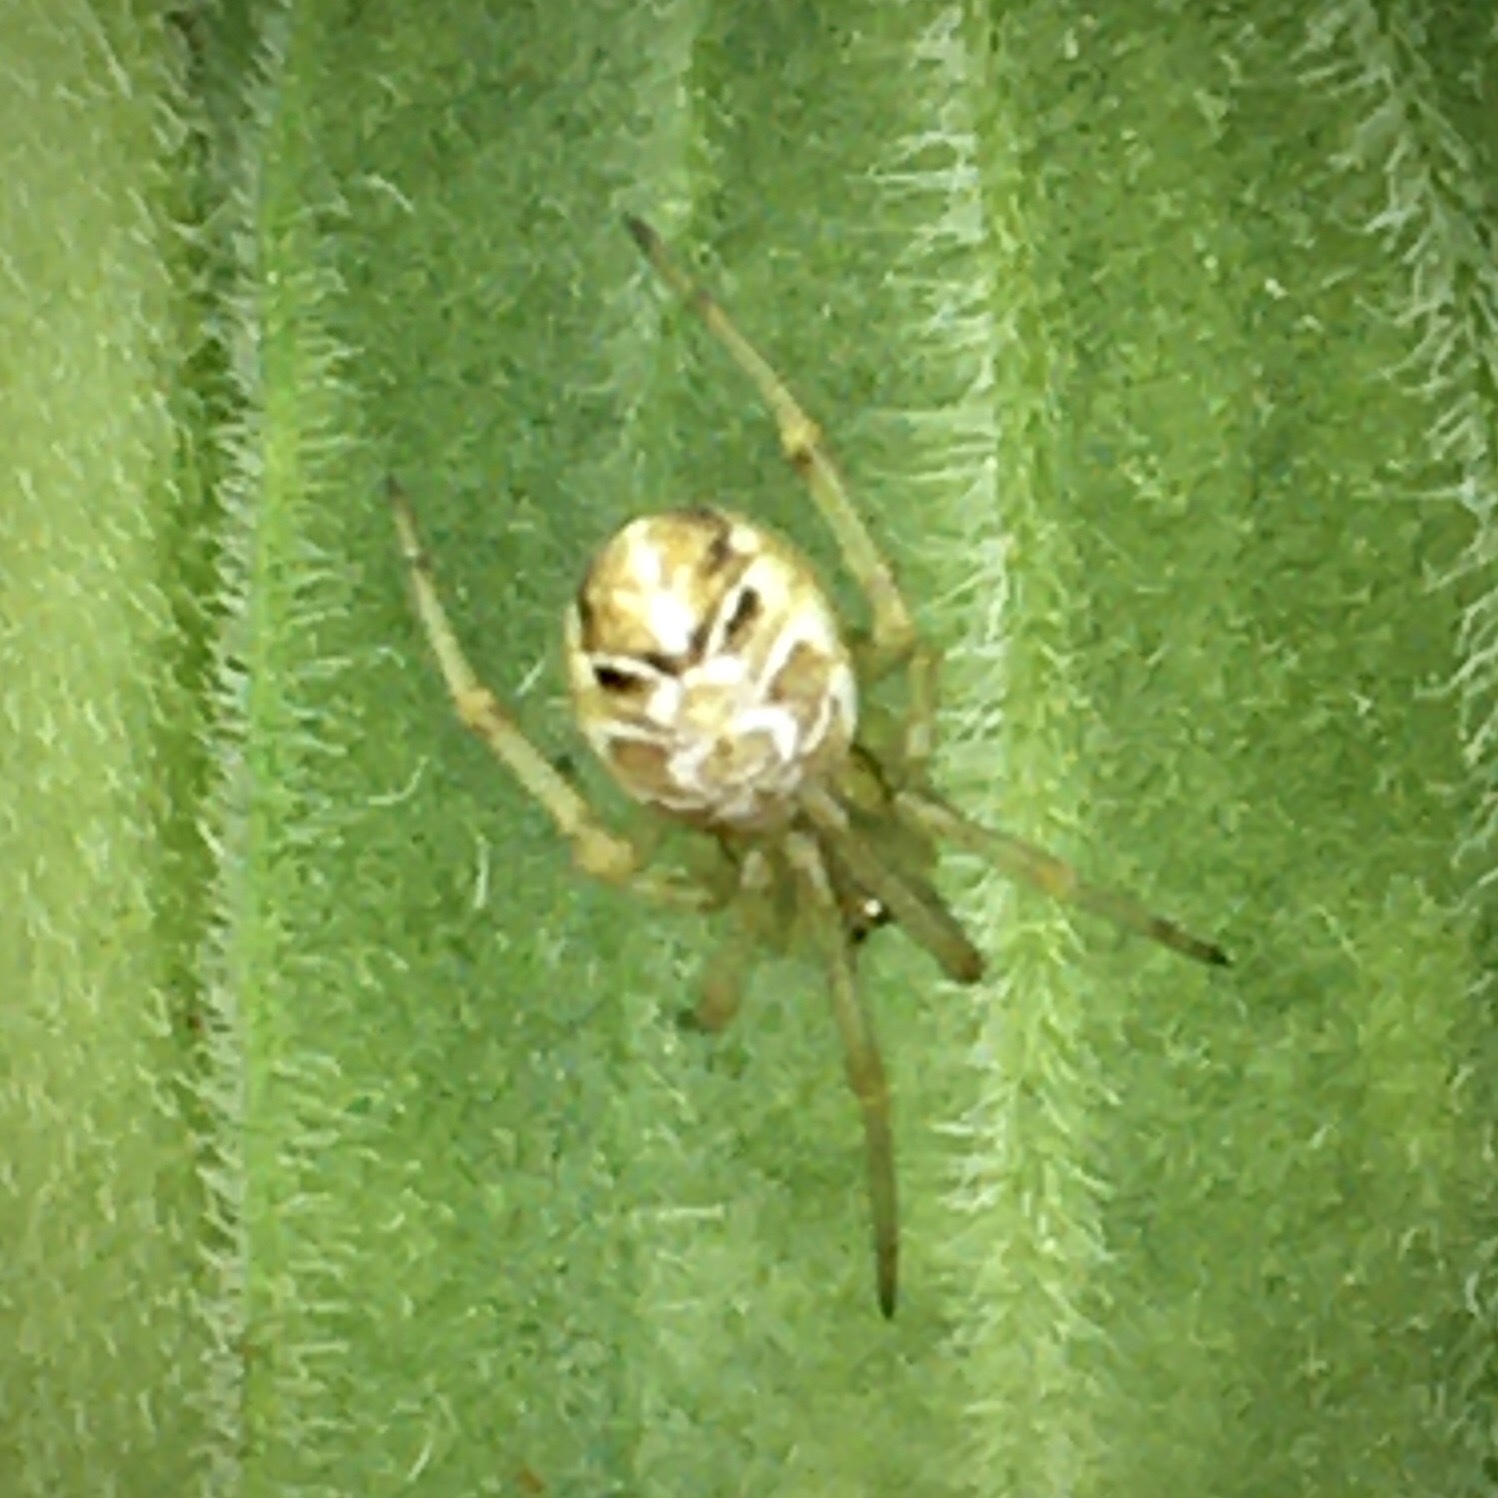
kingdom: Animalia
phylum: Arthropoda
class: Arachnida
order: Araneae
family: Theridiidae
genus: Phylloneta
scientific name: Phylloneta
